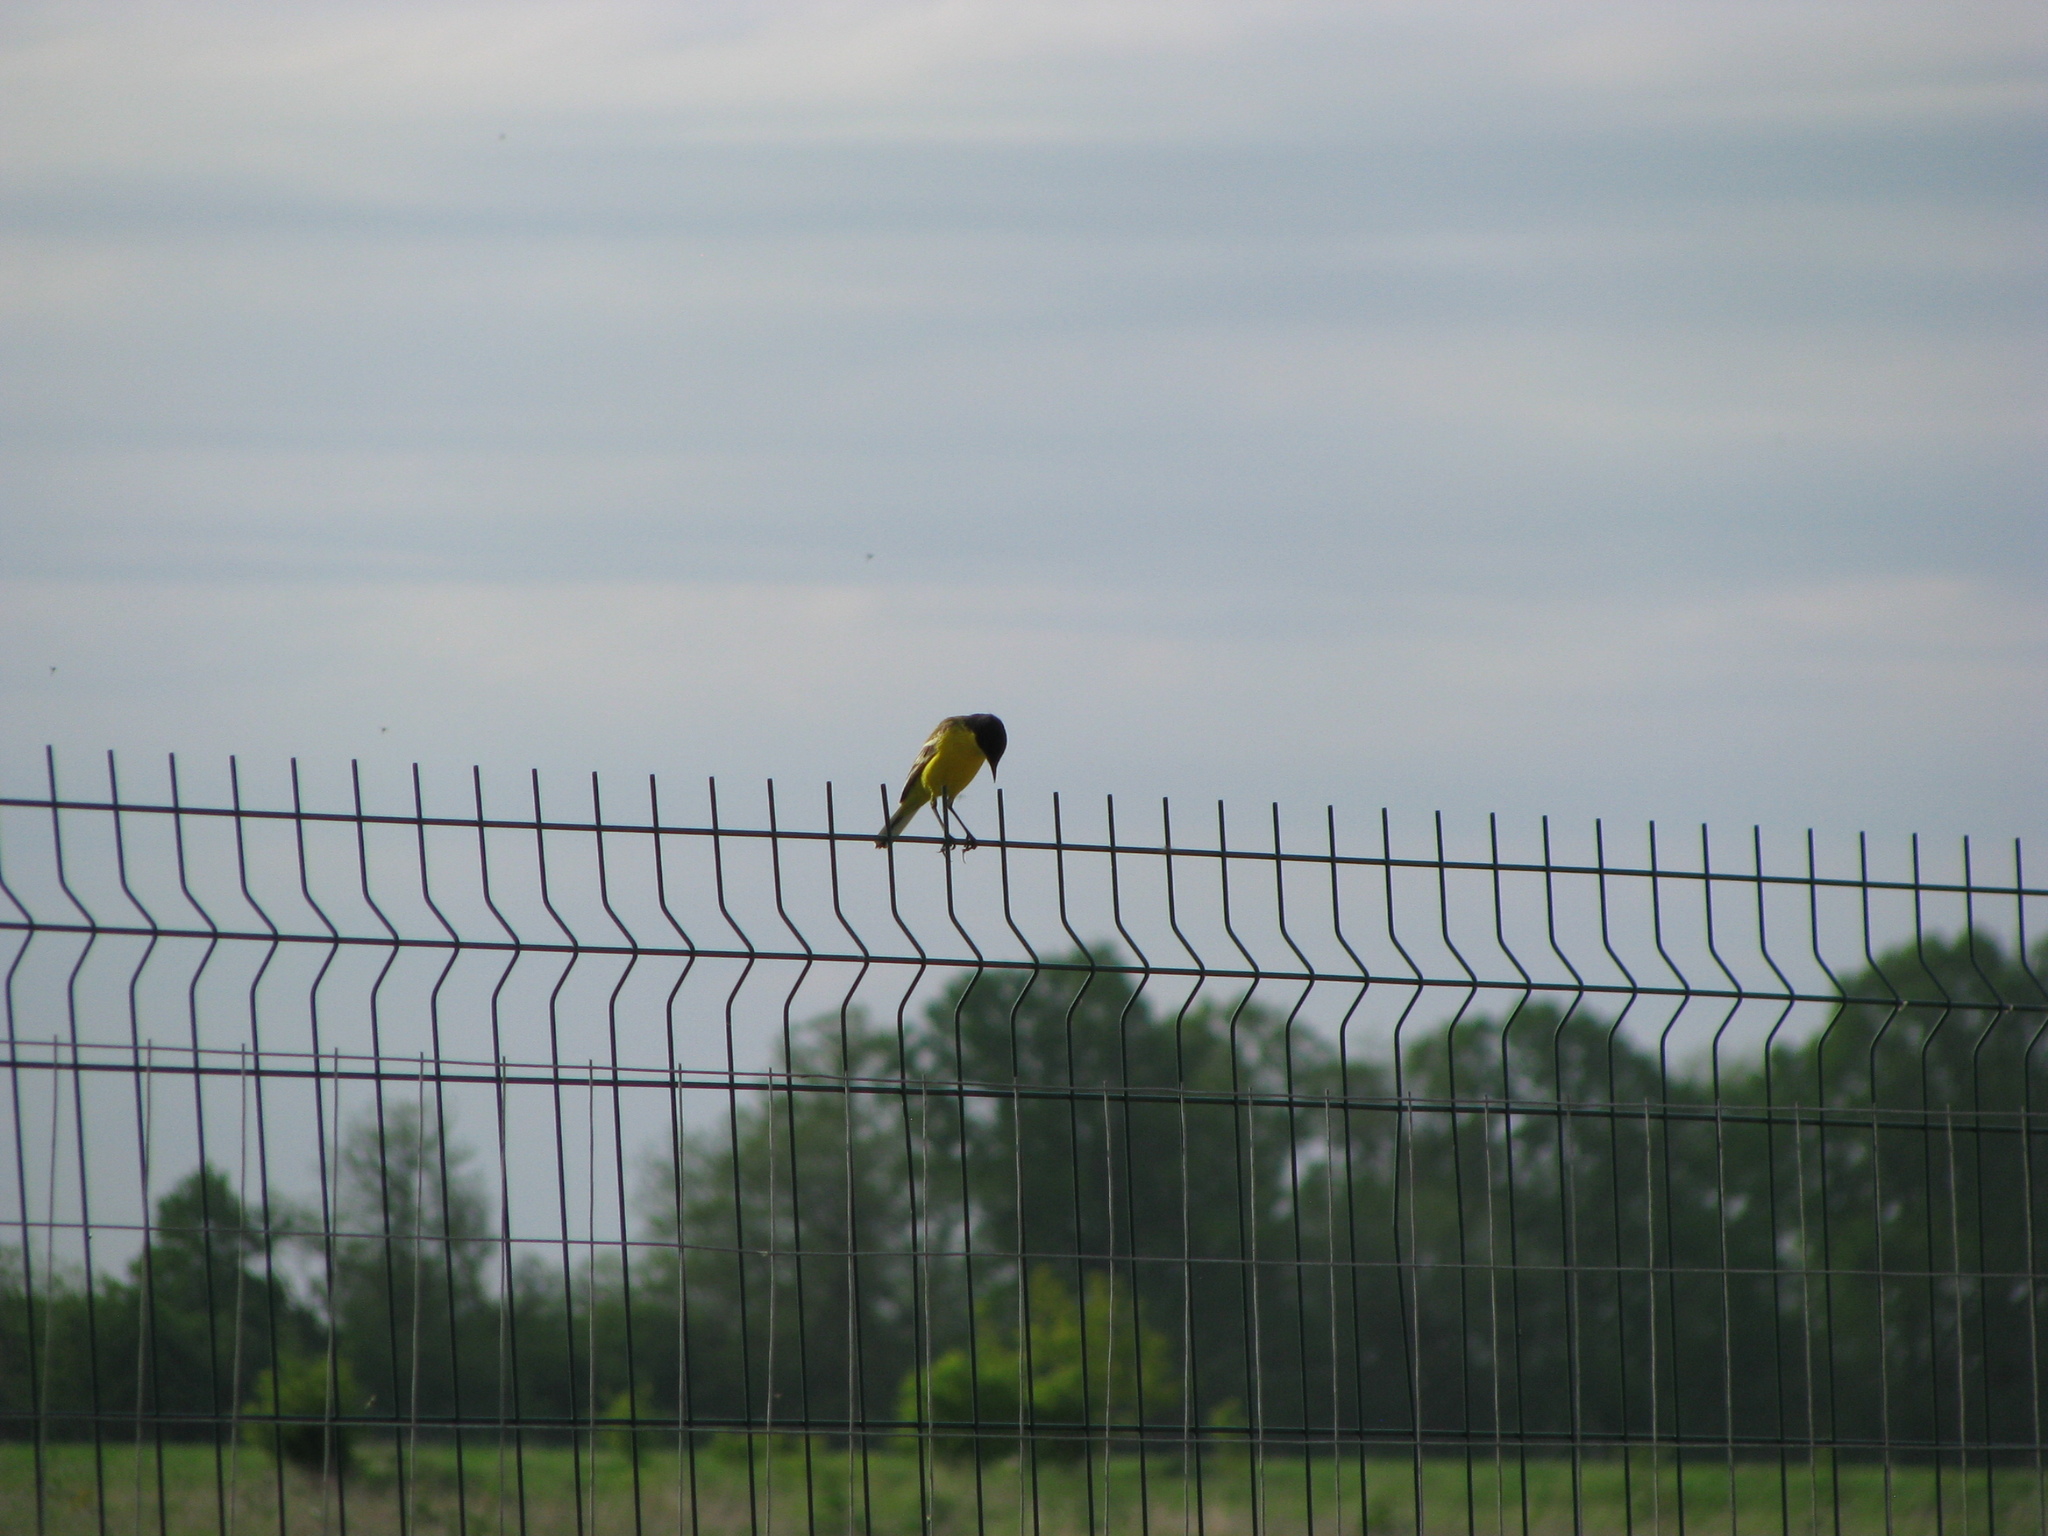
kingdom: Animalia
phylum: Chordata
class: Aves
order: Passeriformes
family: Motacillidae
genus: Motacilla
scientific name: Motacilla flava
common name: Western yellow wagtail
